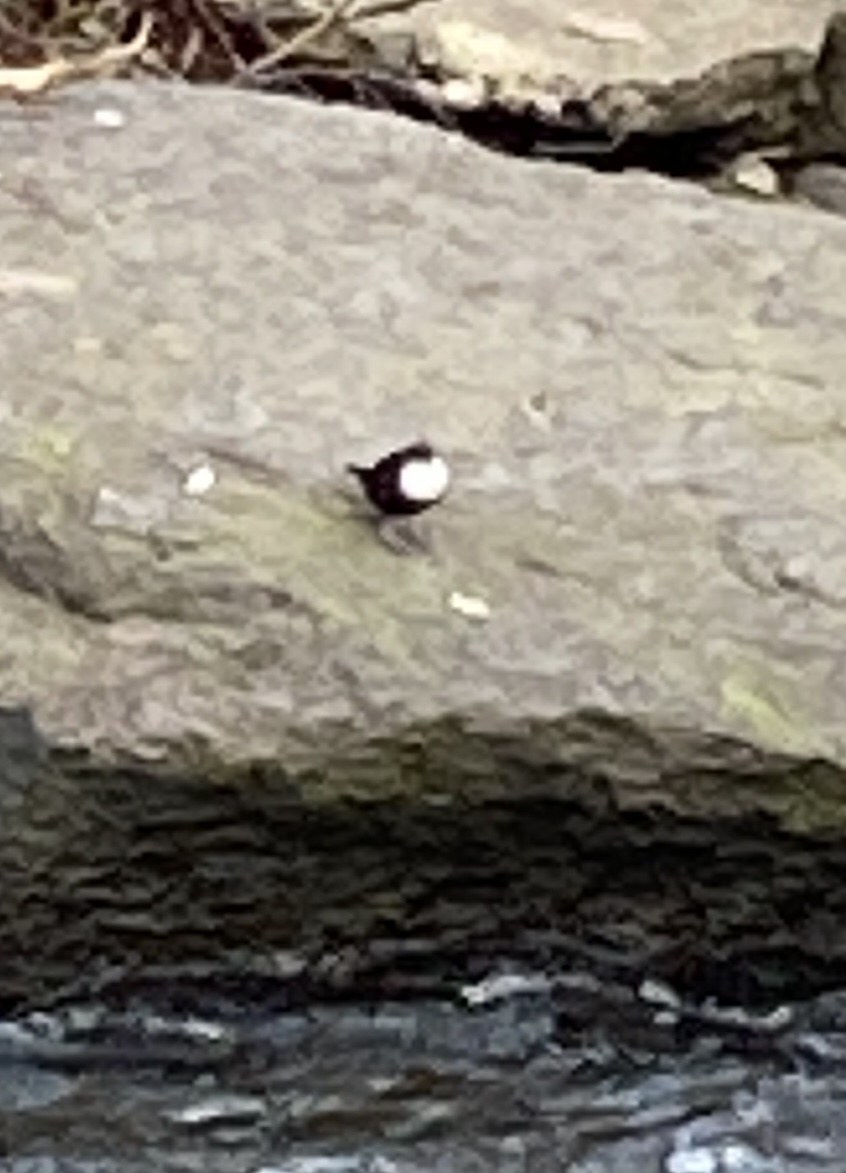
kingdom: Animalia
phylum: Chordata
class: Aves
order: Passeriformes
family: Cinclidae
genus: Cinclus
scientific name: Cinclus cinclus
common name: White-throated dipper
